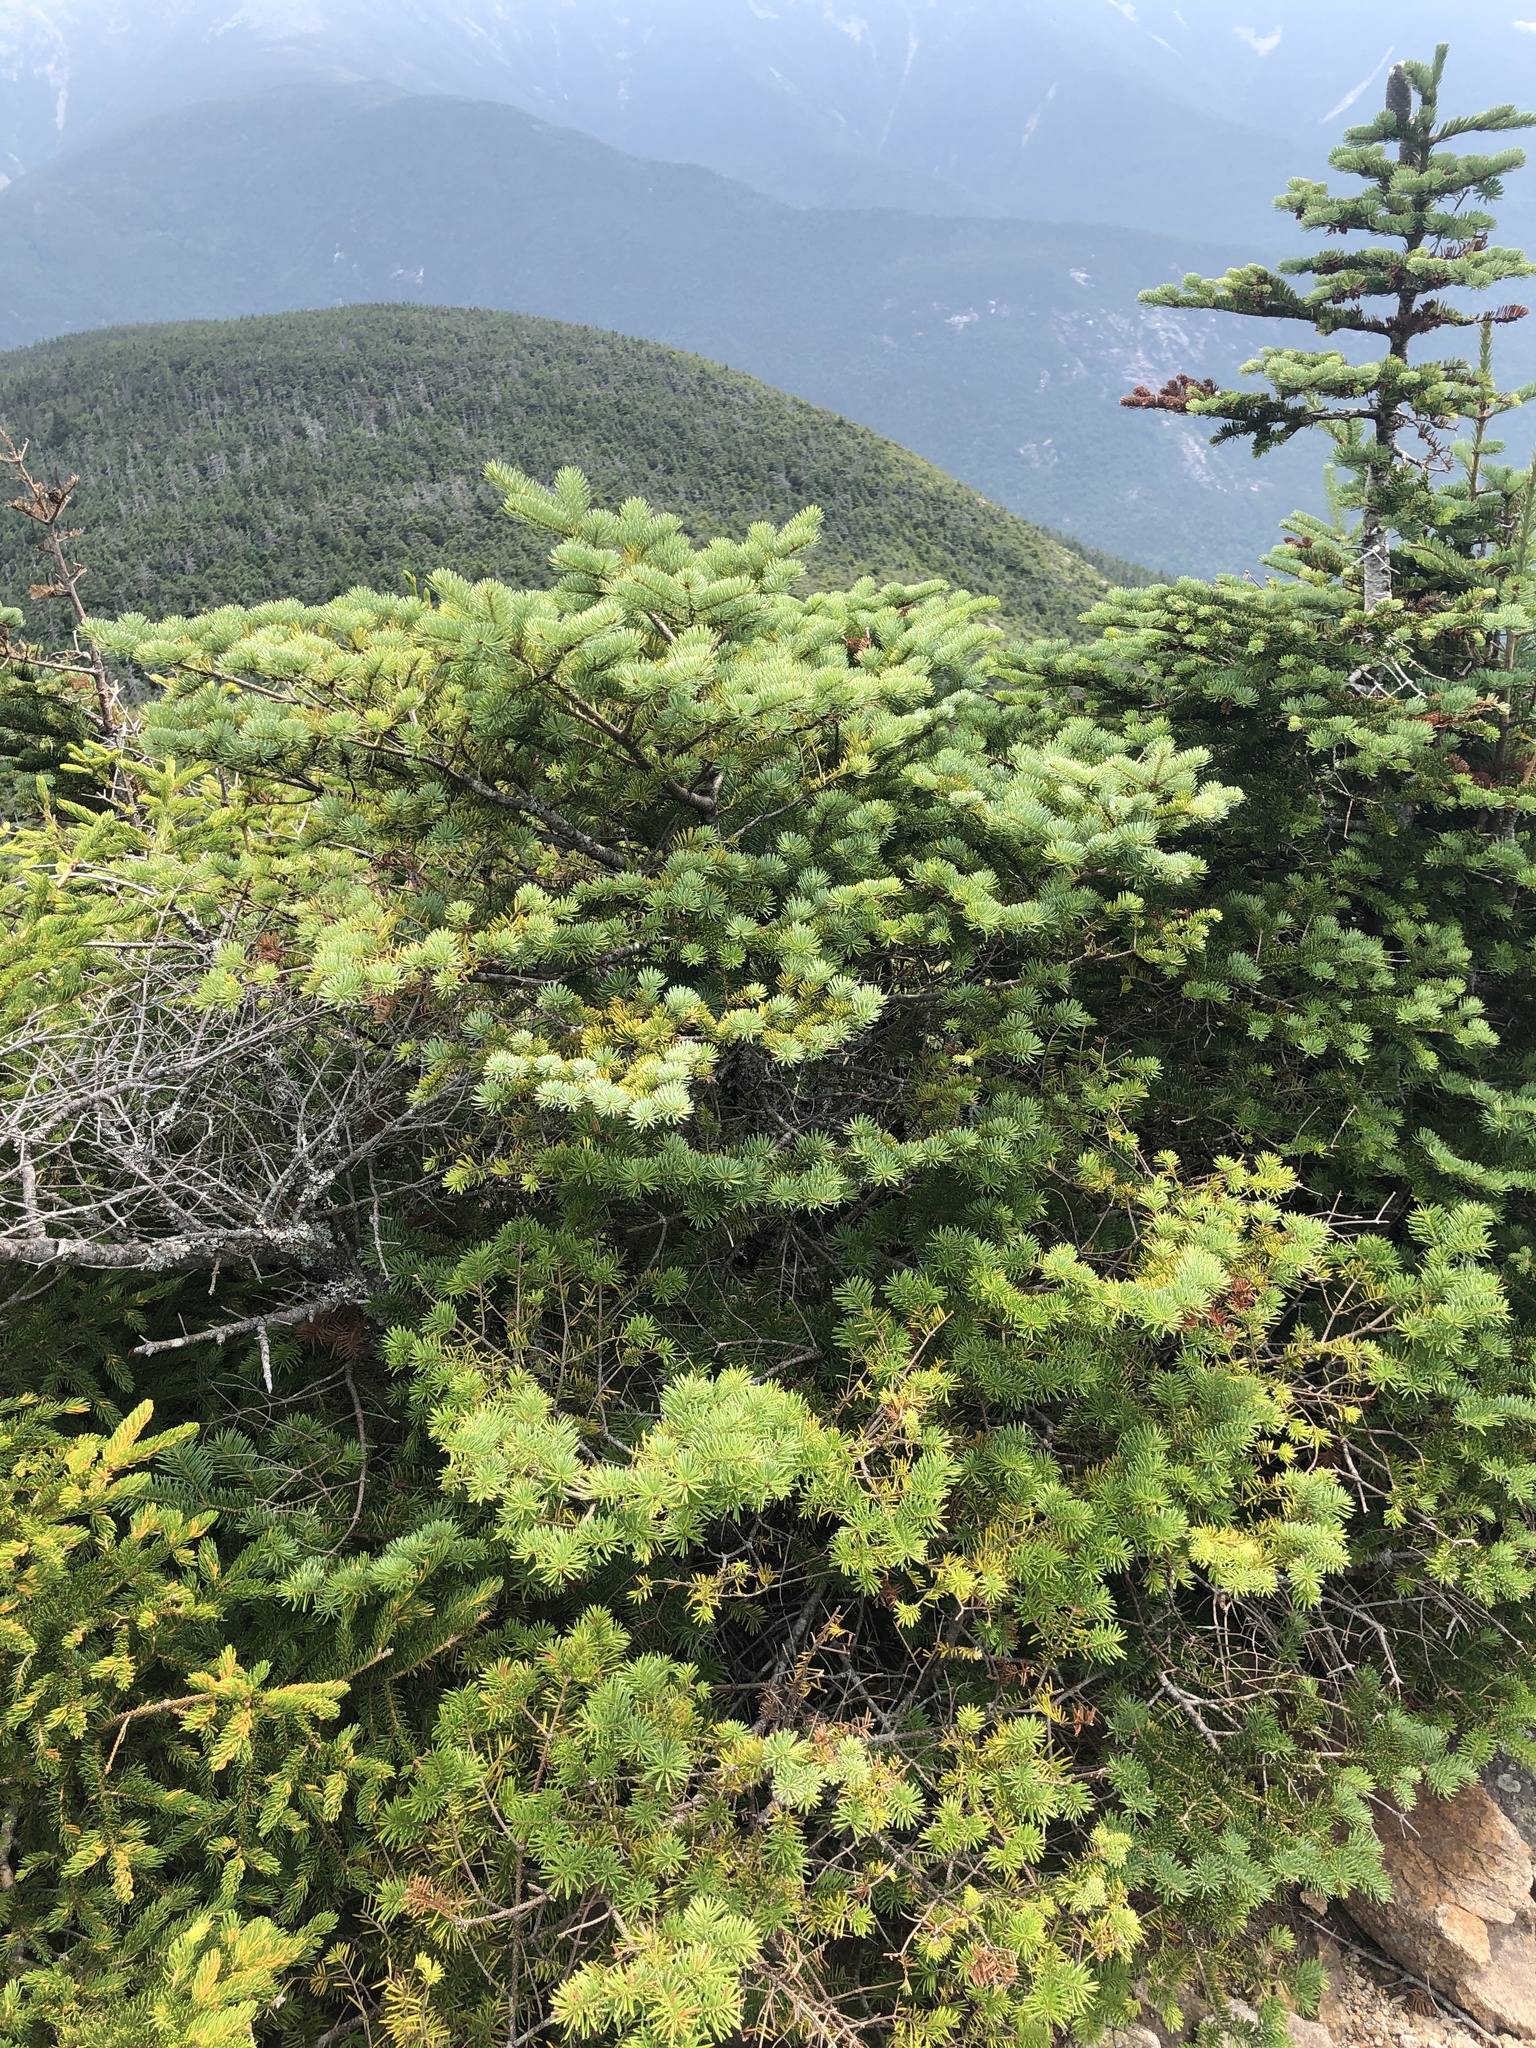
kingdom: Plantae
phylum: Tracheophyta
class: Pinopsida
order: Pinales
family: Pinaceae
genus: Abies
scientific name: Abies balsamea
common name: Balsam fir
